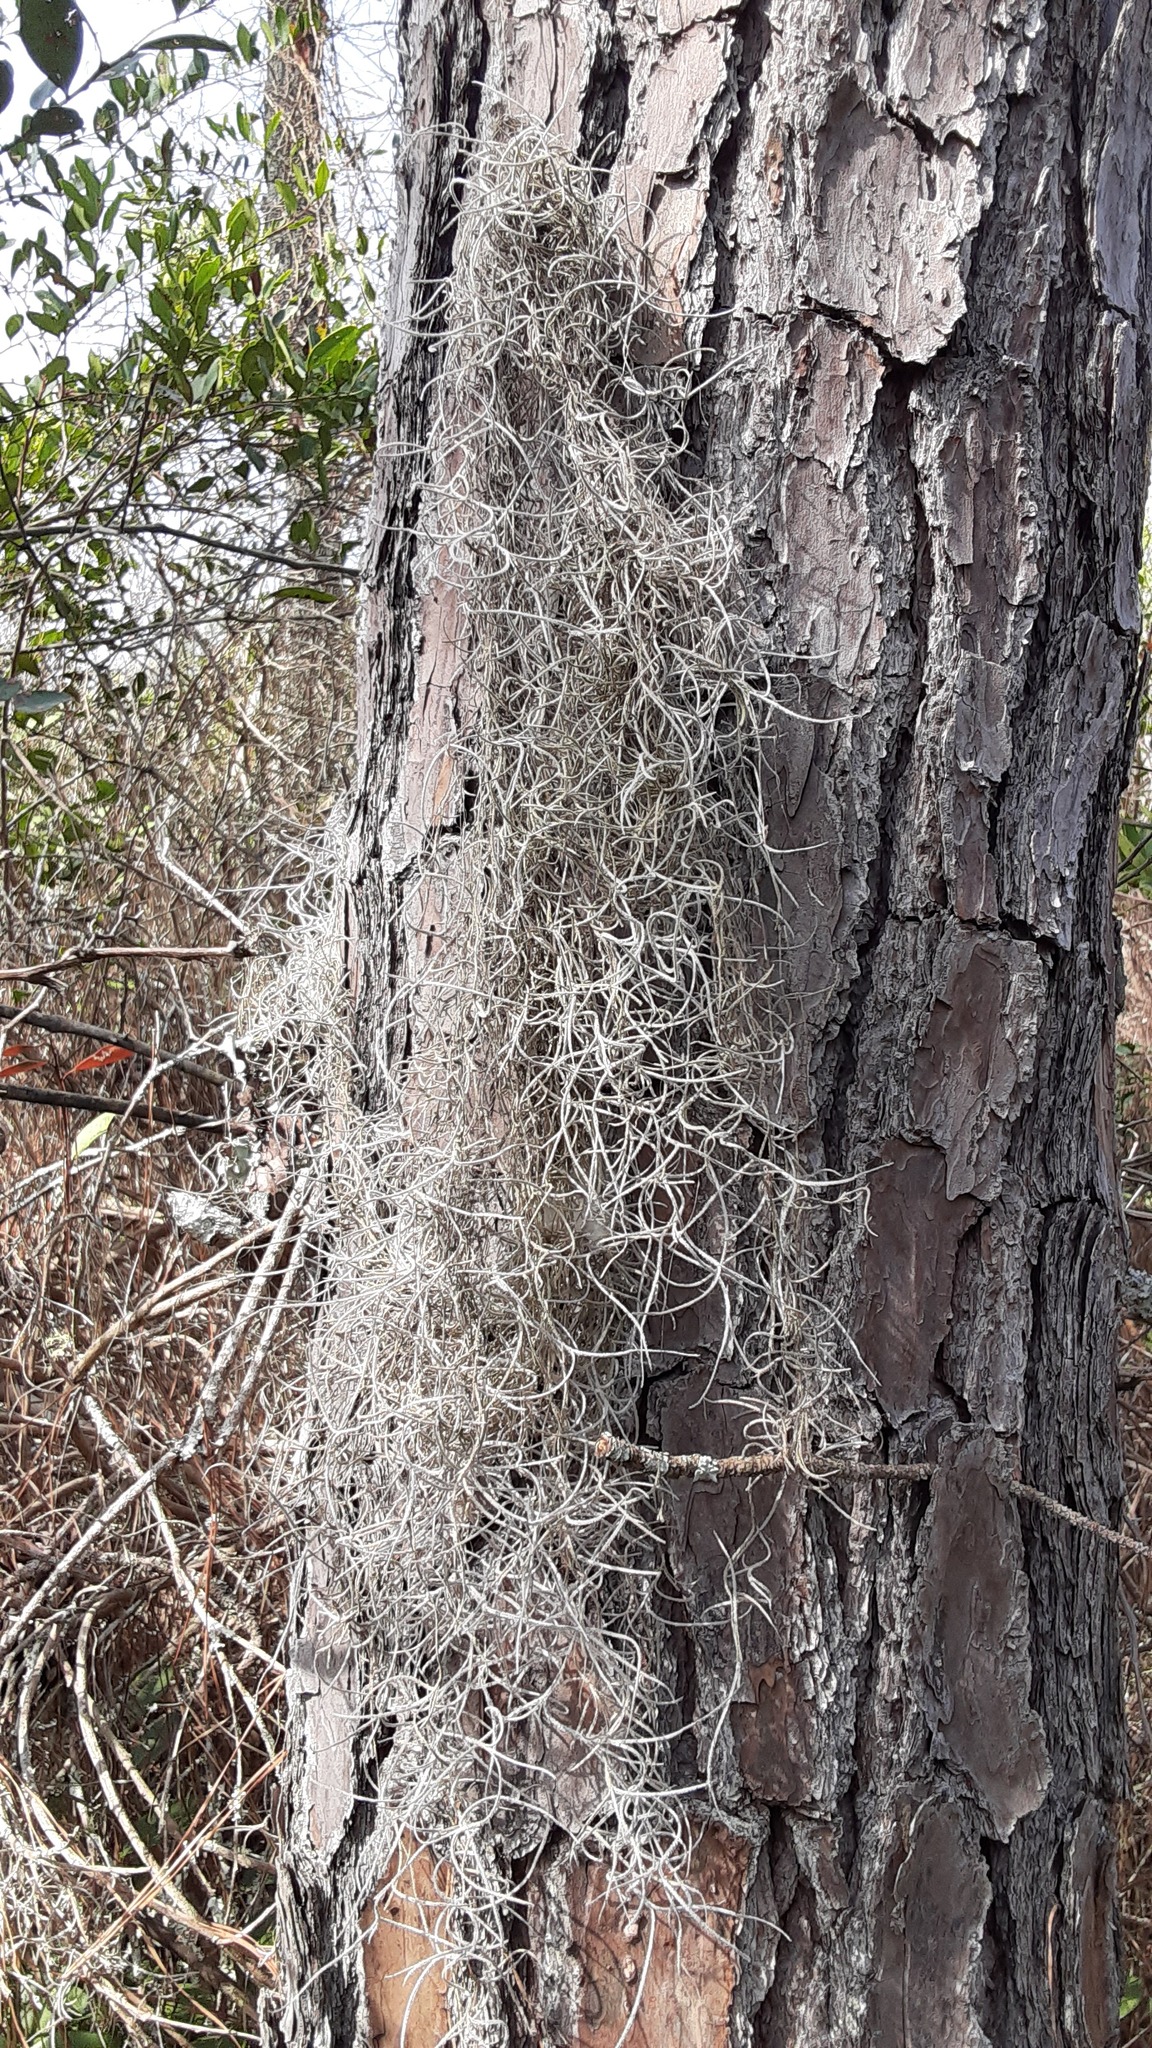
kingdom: Plantae
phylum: Tracheophyta
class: Liliopsida
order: Poales
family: Bromeliaceae
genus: Tillandsia
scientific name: Tillandsia usneoides
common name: Spanish moss
